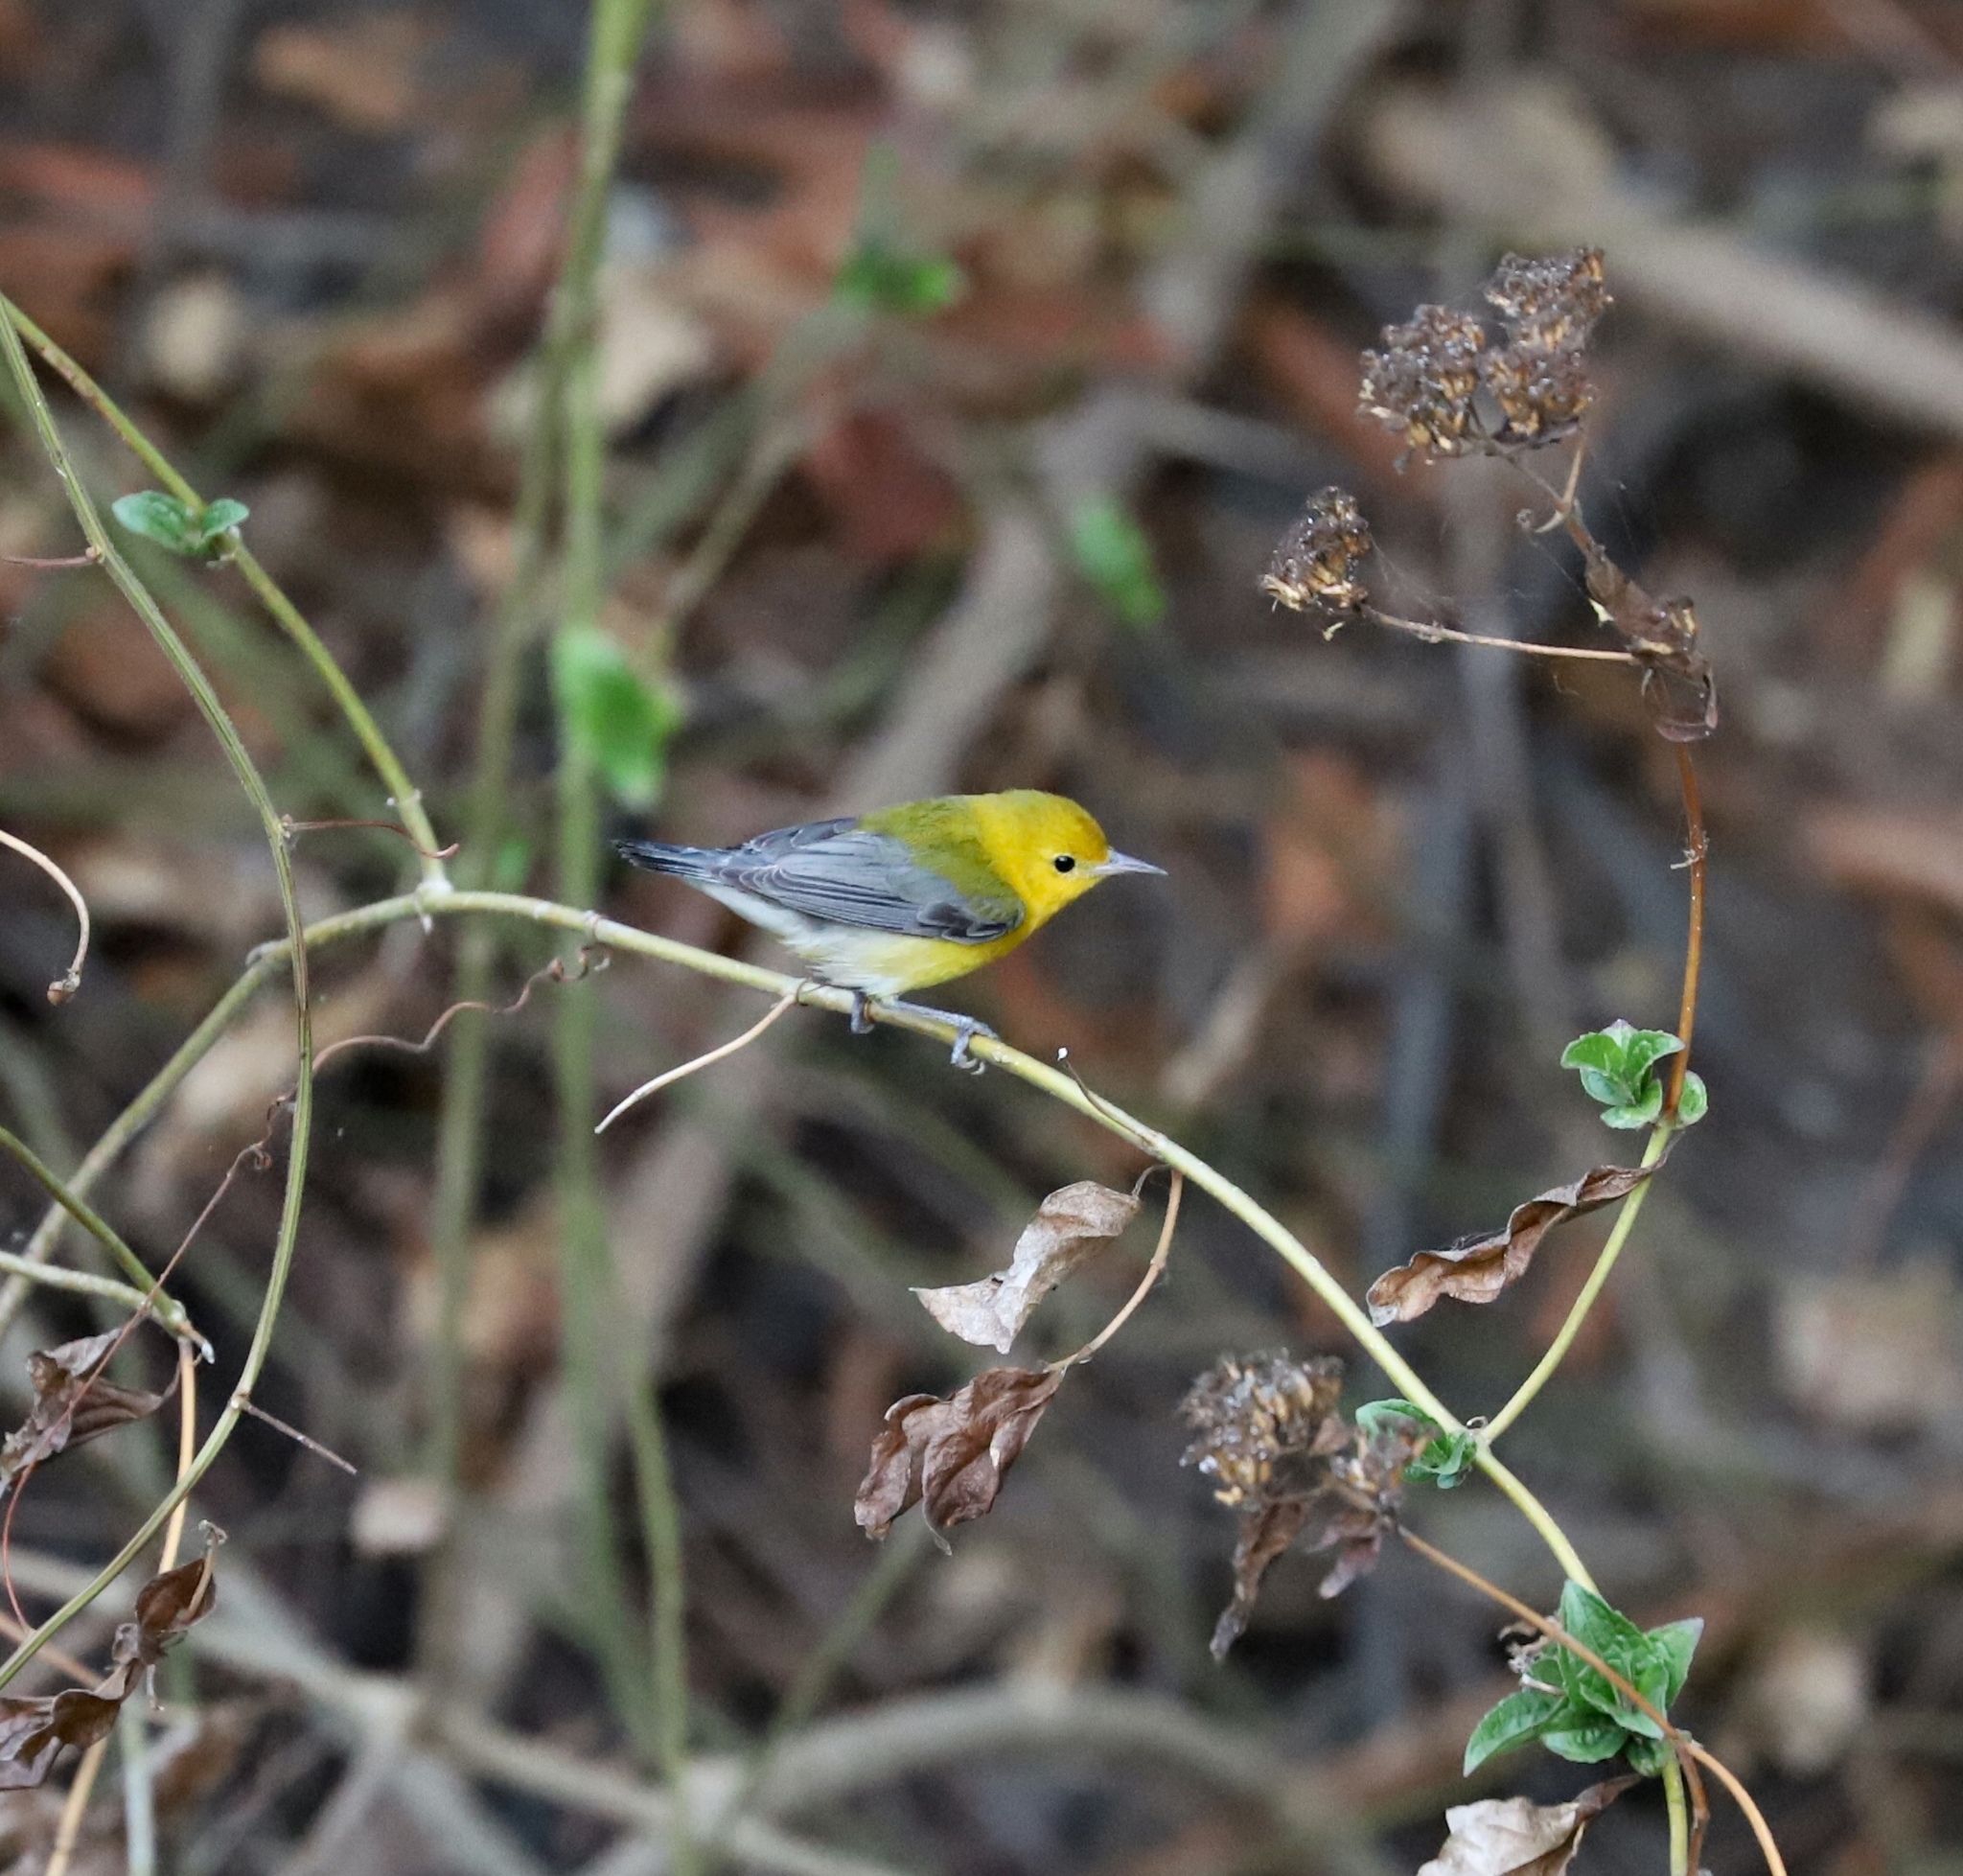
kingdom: Animalia
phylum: Chordata
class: Aves
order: Passeriformes
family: Parulidae
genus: Protonotaria
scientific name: Protonotaria citrea
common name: Prothonotary warbler
